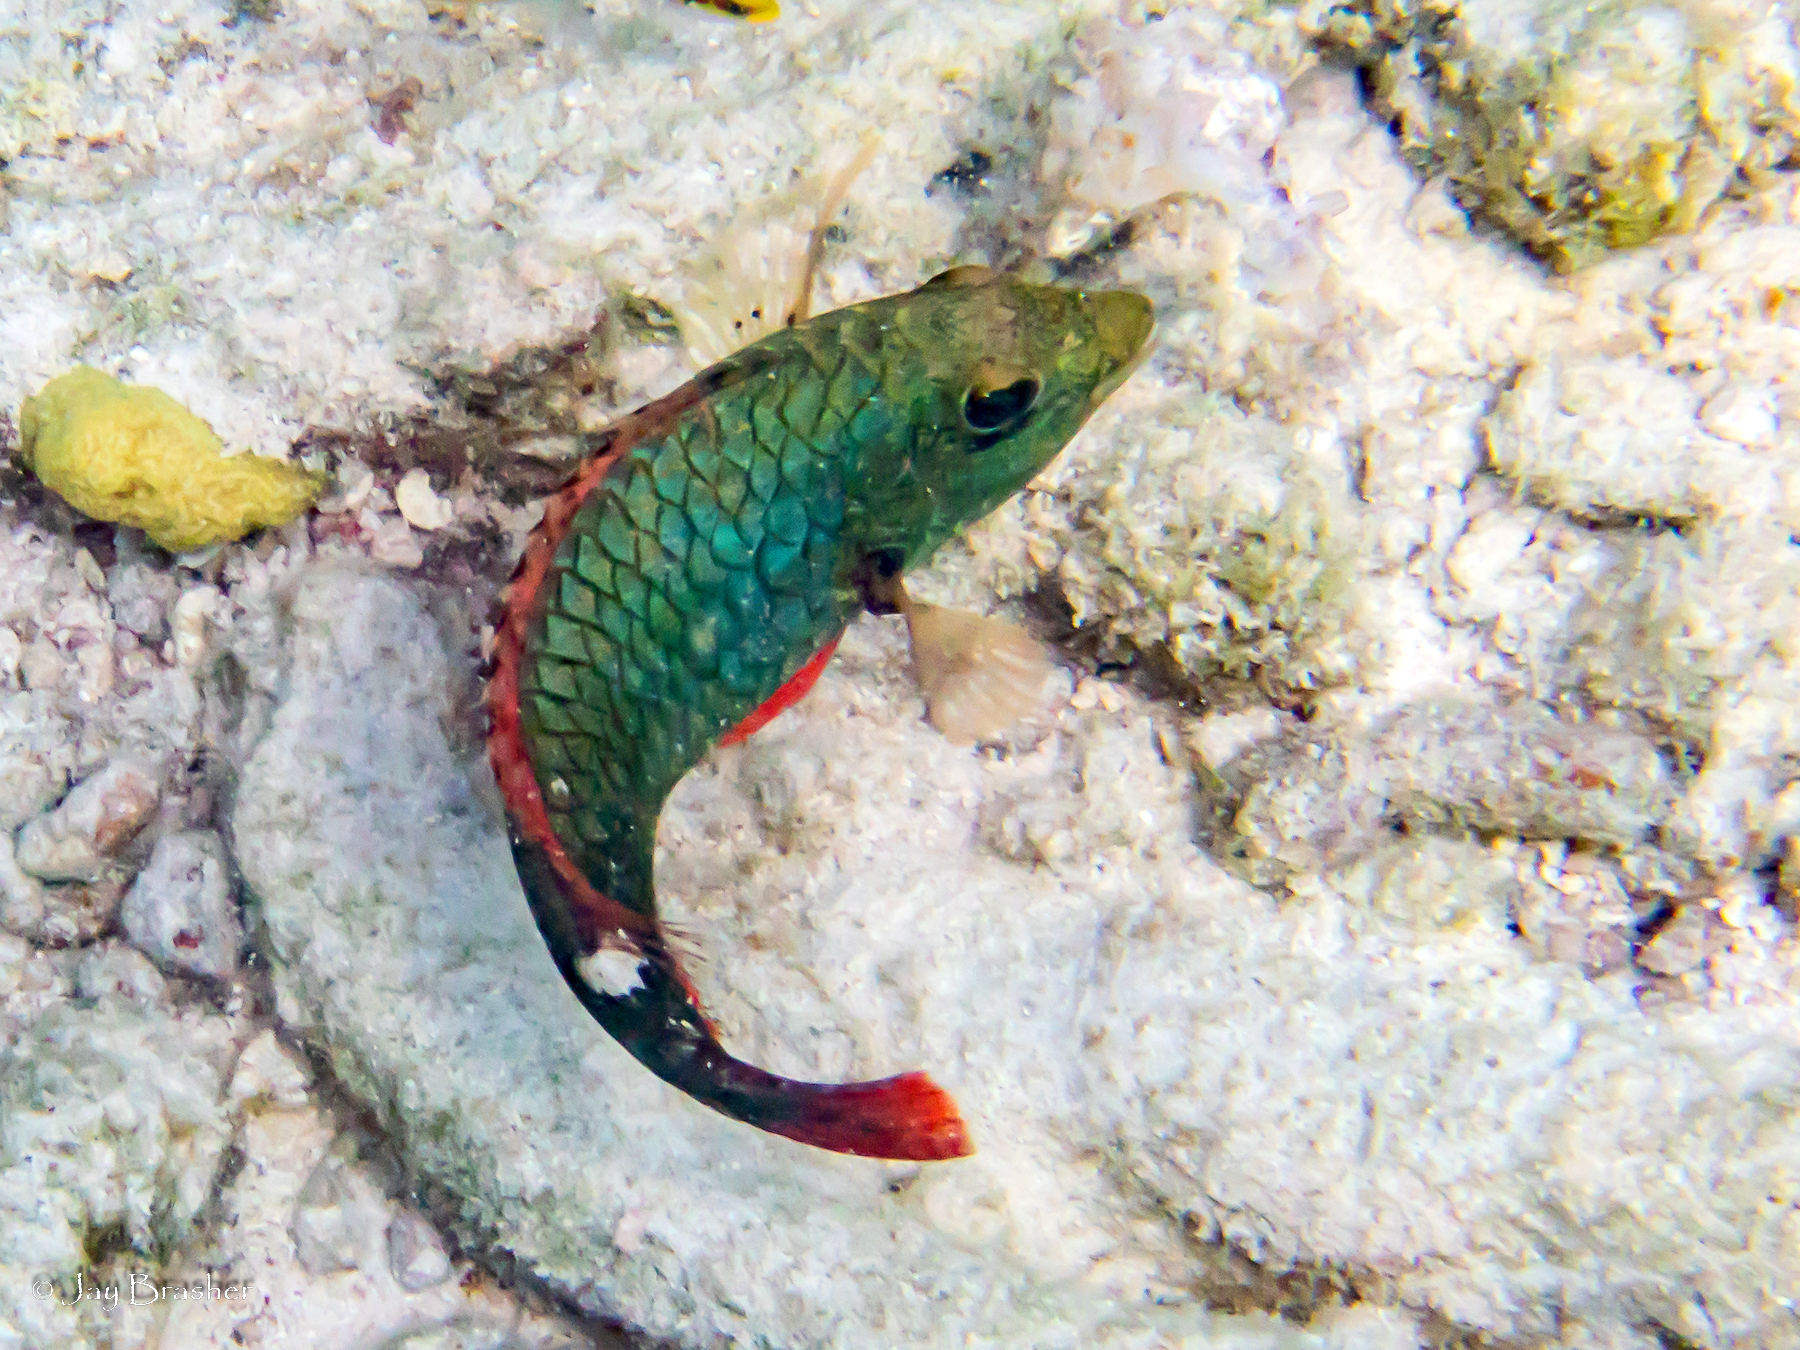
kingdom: Animalia
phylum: Chordata
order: Perciformes
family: Scaridae
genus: Sparisoma
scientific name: Sparisoma aurofrenatum
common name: Redband parrotfish
